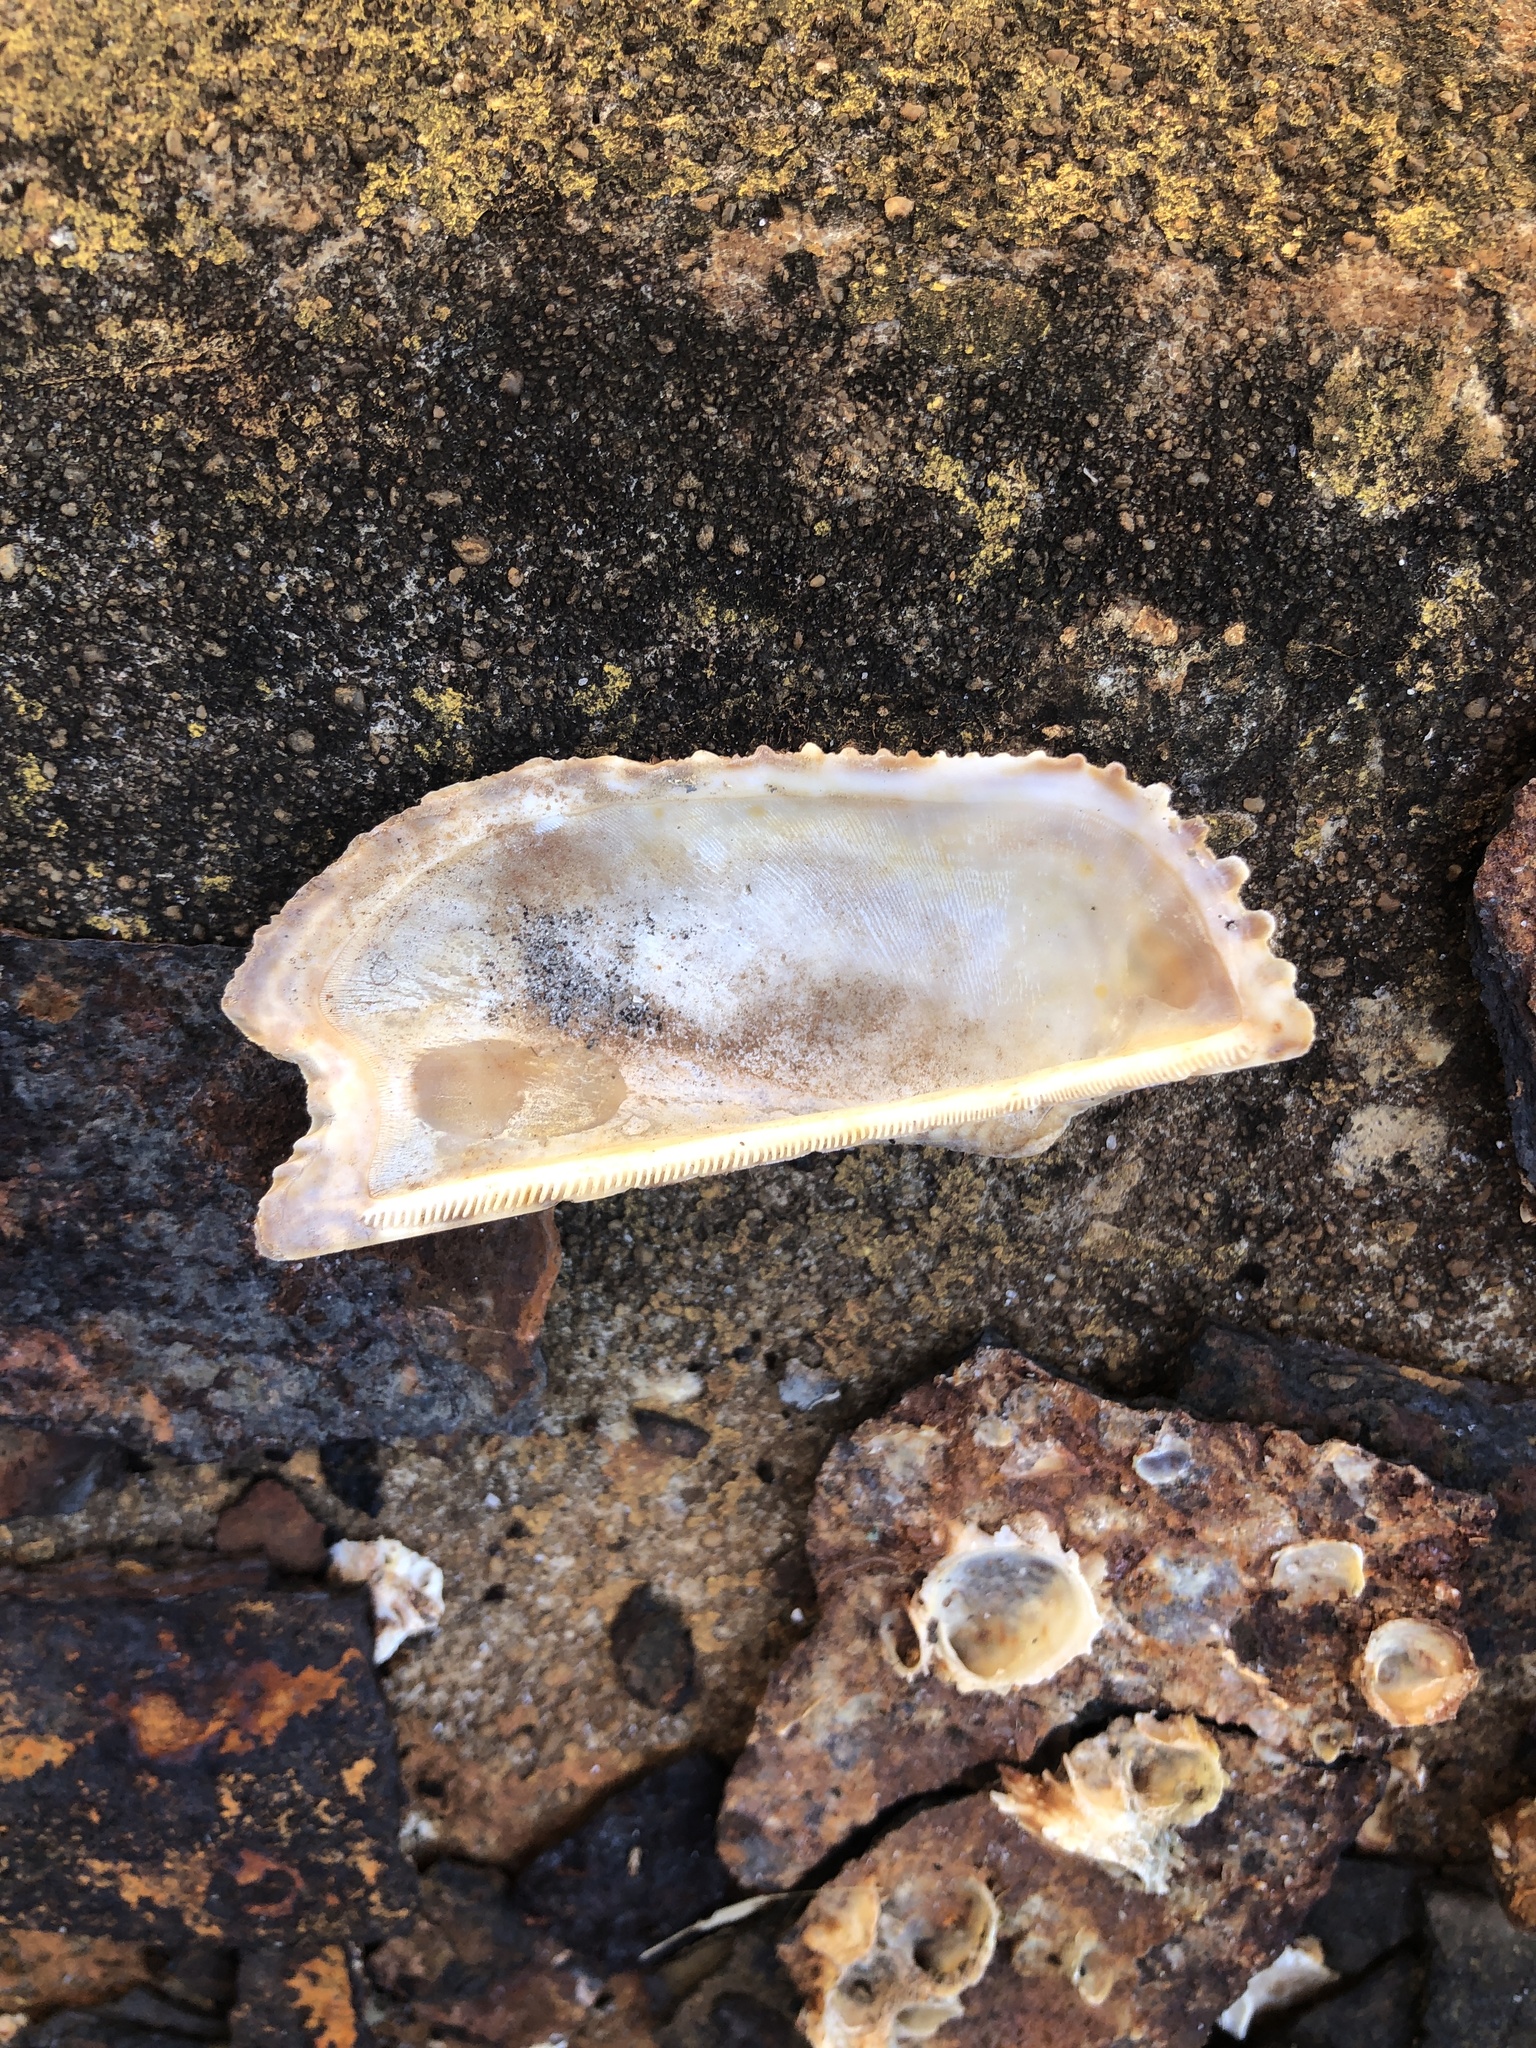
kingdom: Animalia
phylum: Mollusca
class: Bivalvia
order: Arcida
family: Arcidae
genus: Arca
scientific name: Arca zebra
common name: Atlantic turkey wing
